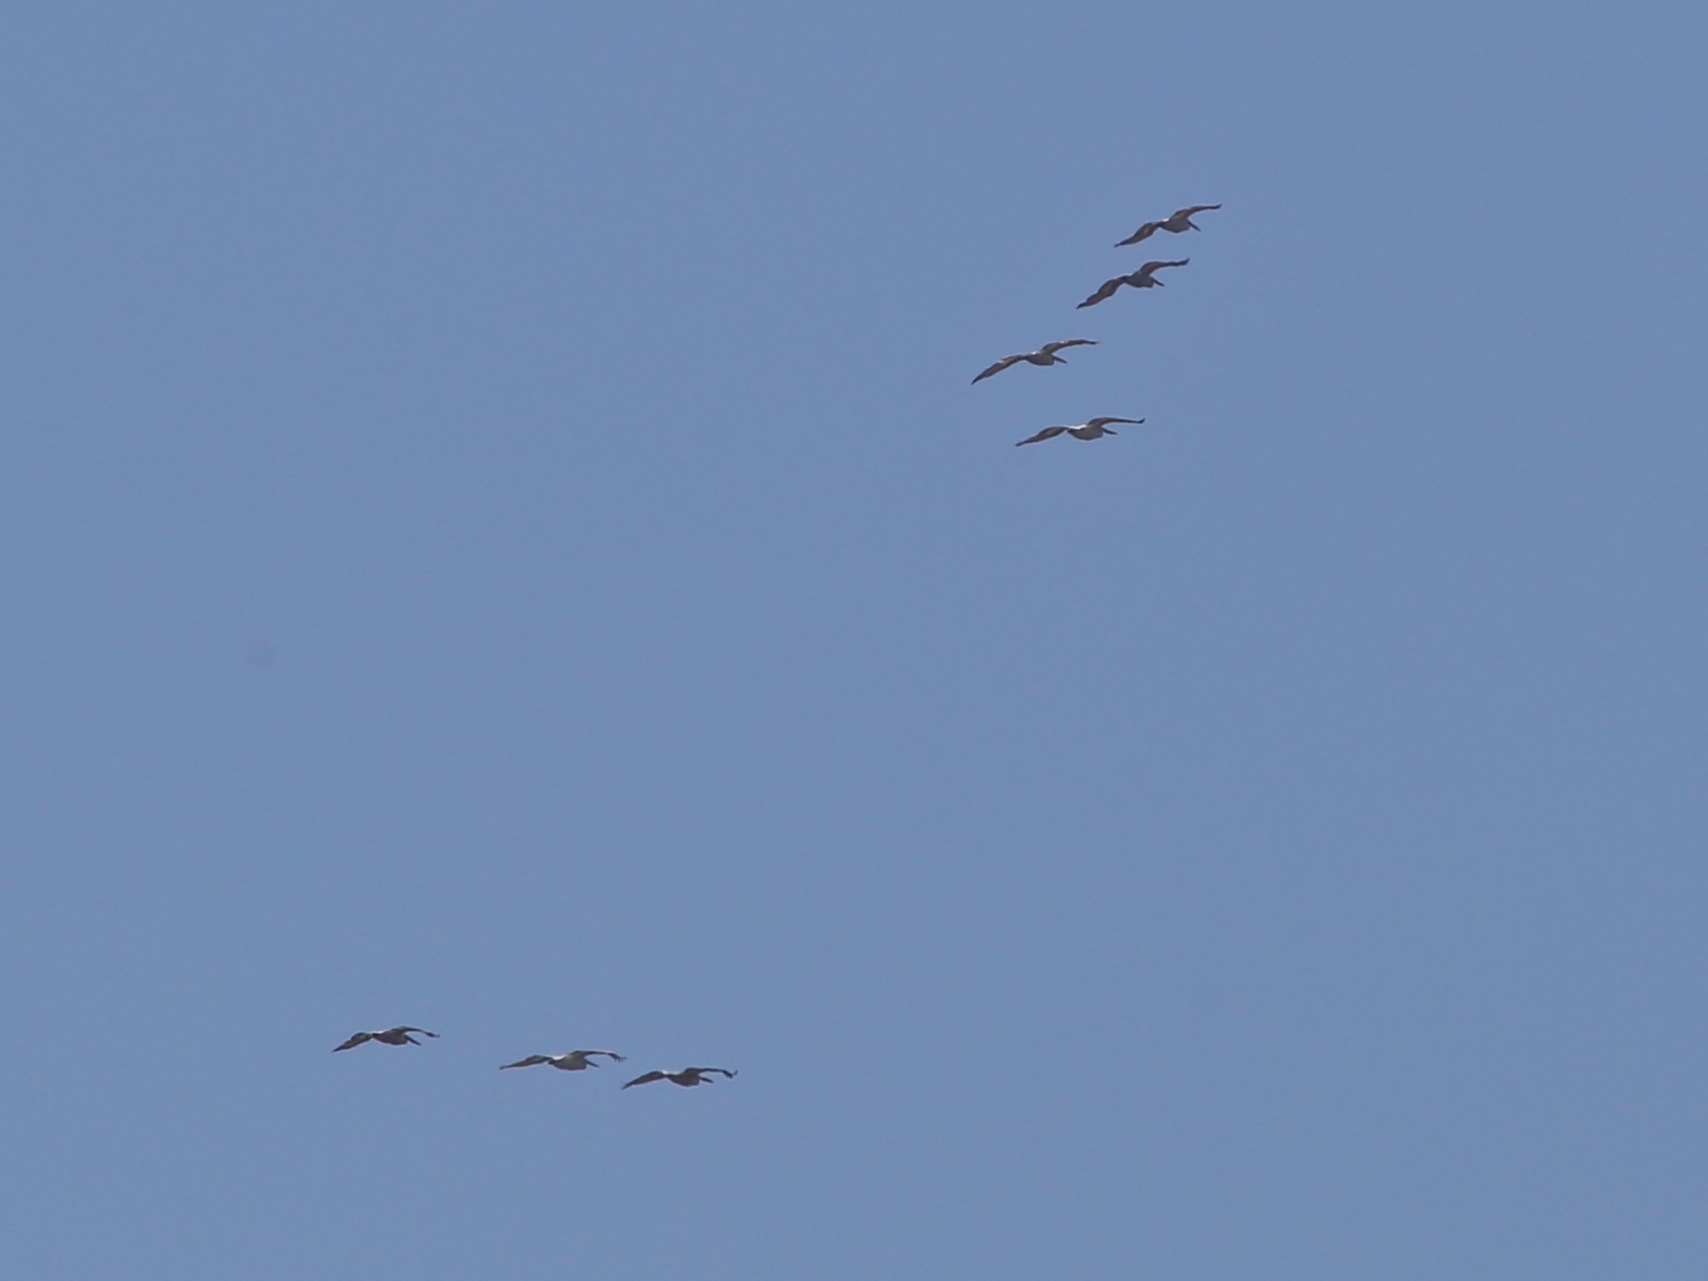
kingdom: Animalia
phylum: Chordata
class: Aves
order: Pelecaniformes
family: Pelecanidae
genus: Pelecanus
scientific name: Pelecanus crispus
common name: Dalmatian pelican
